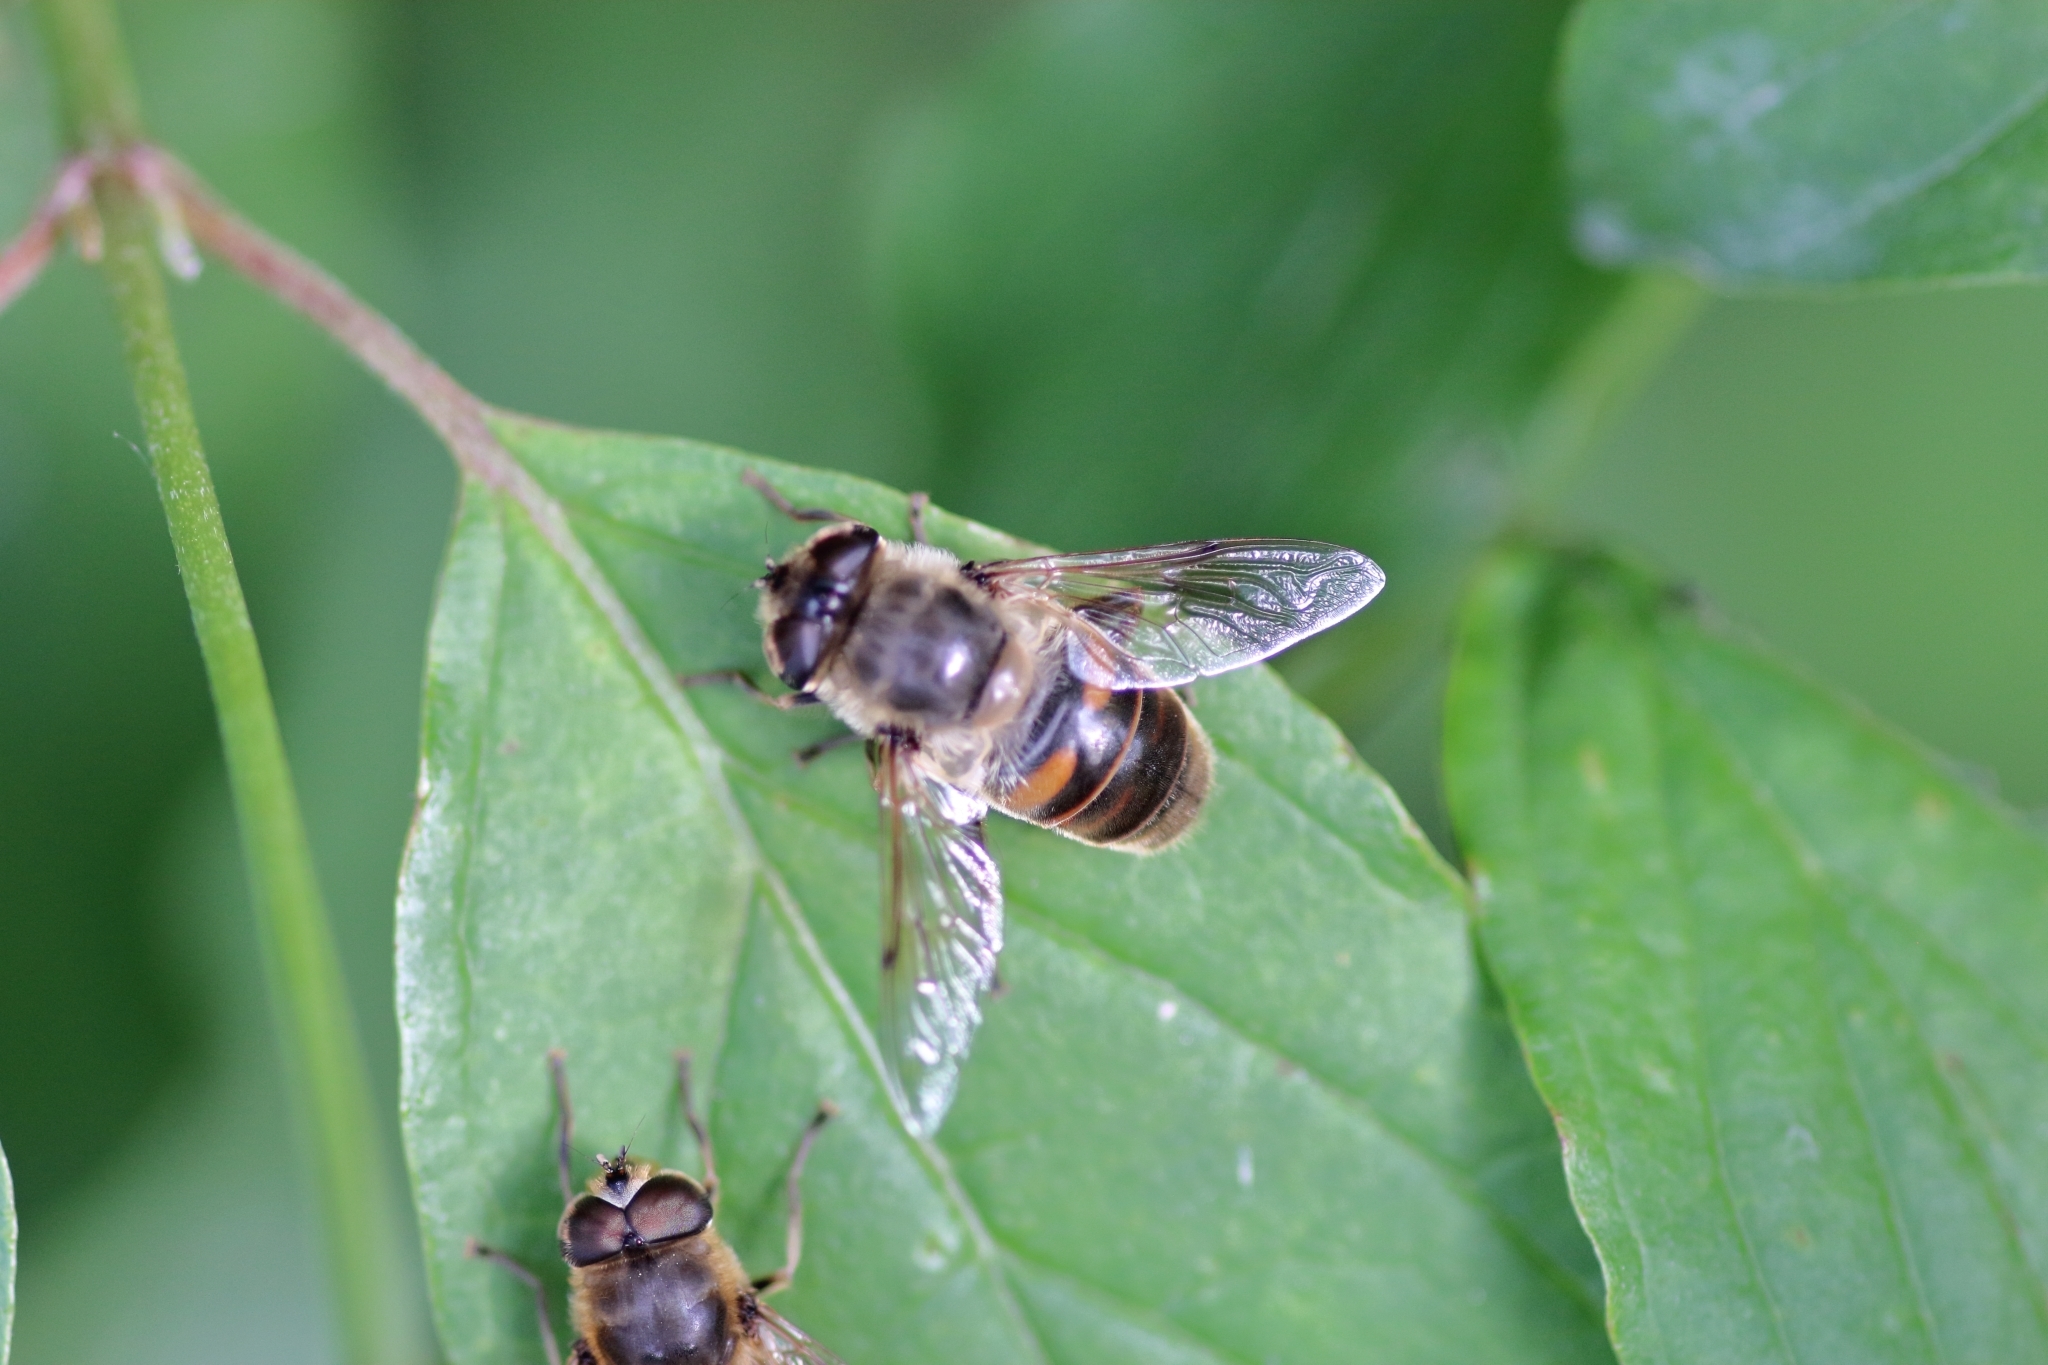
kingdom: Animalia
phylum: Arthropoda
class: Insecta
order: Diptera
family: Syrphidae
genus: Eristalis
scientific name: Eristalis tenax
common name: Drone fly
